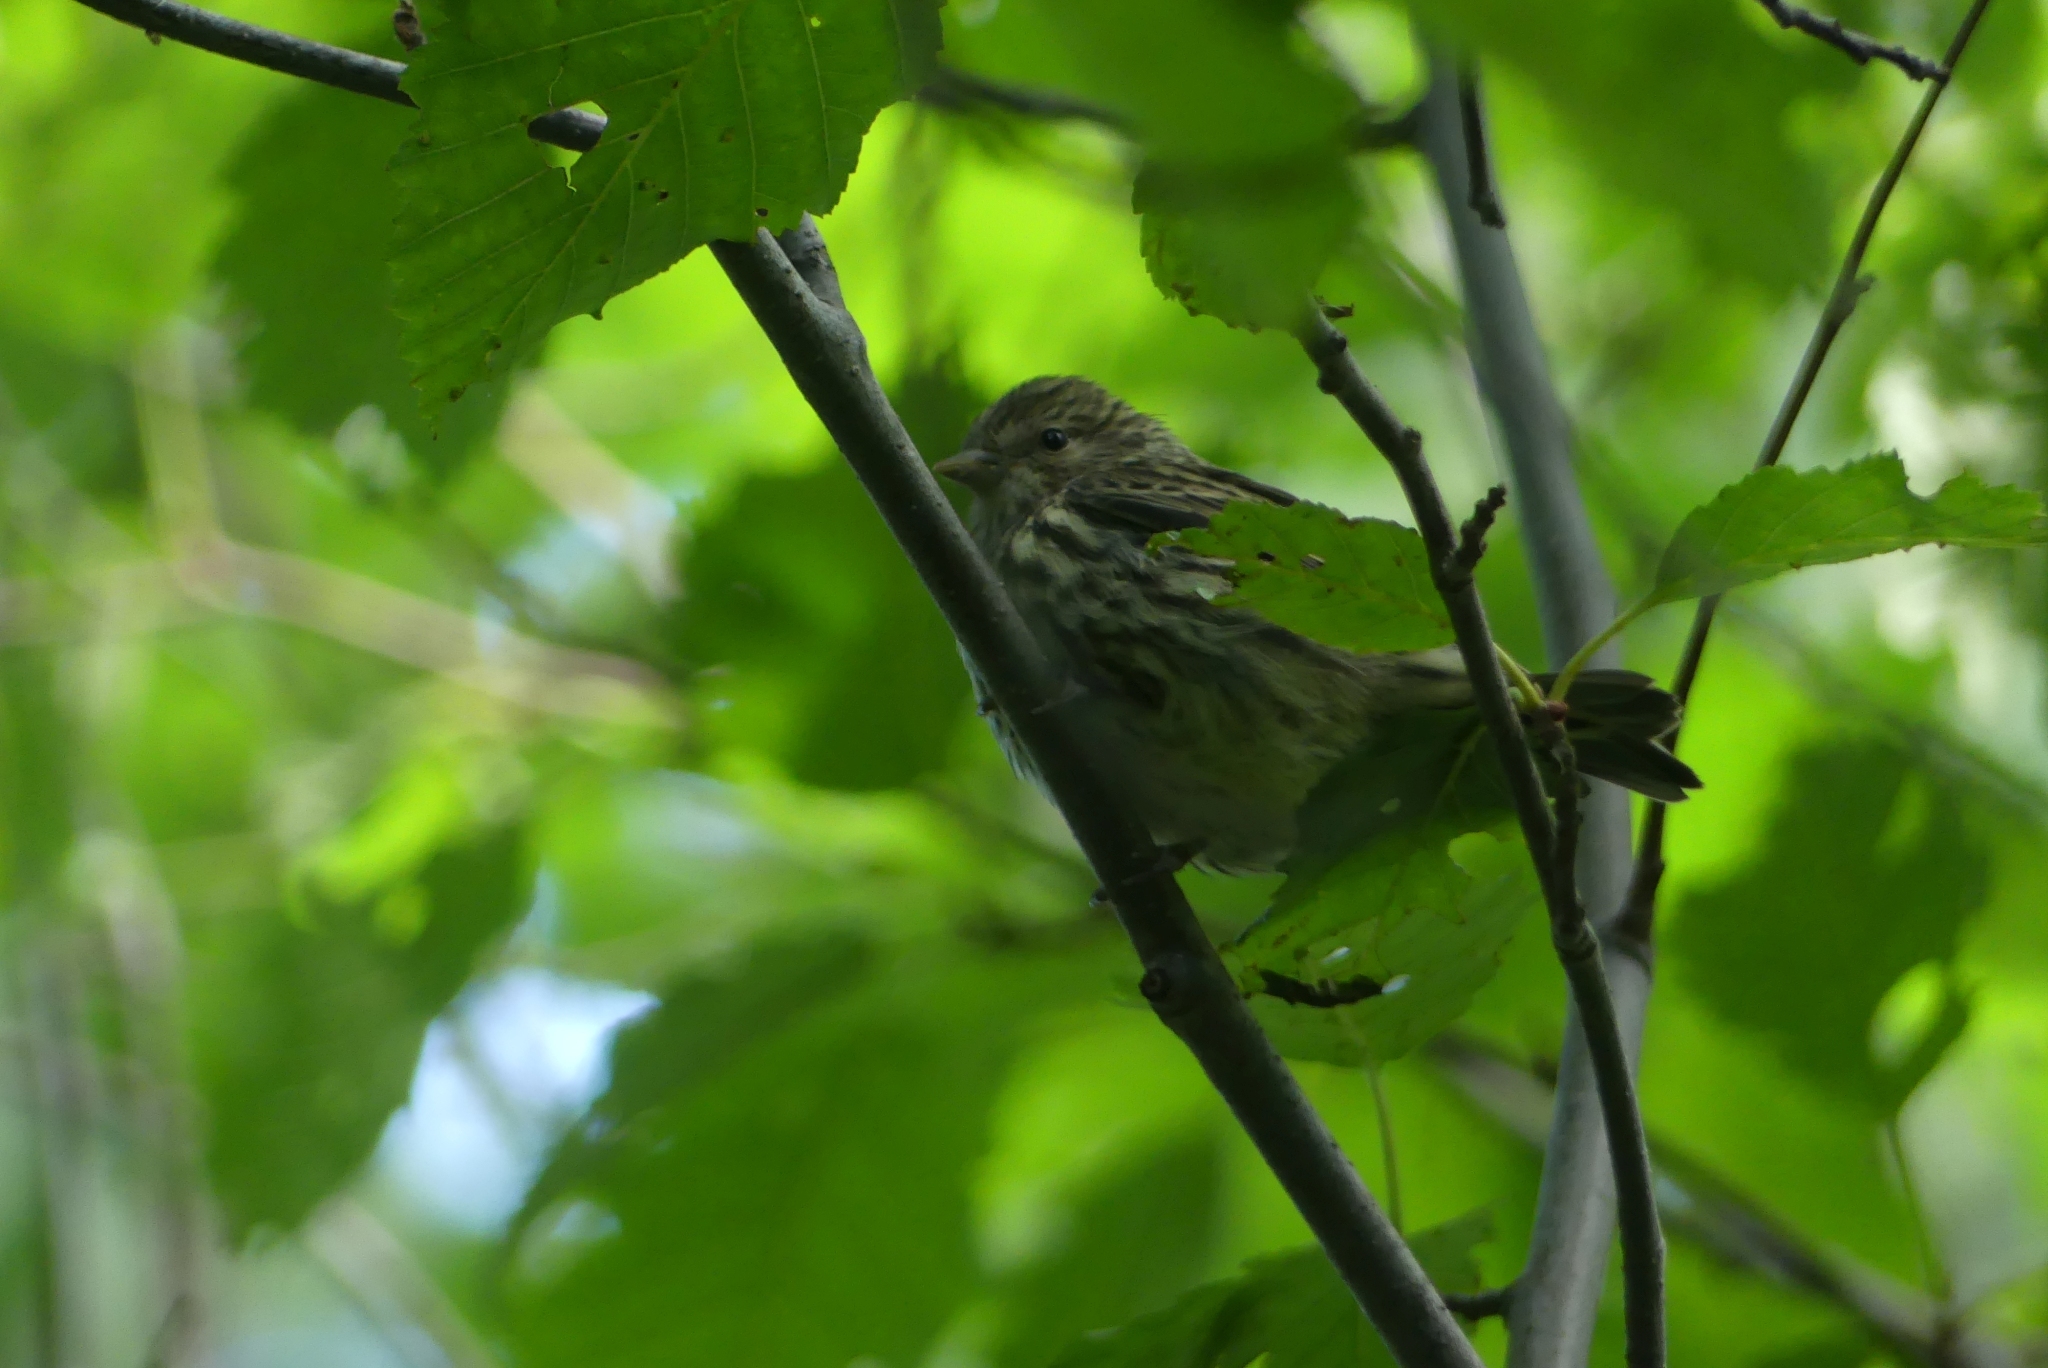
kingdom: Animalia
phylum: Chordata
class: Aves
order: Passeriformes
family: Fringillidae
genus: Spinus
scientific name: Spinus pinus
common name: Pine siskin
